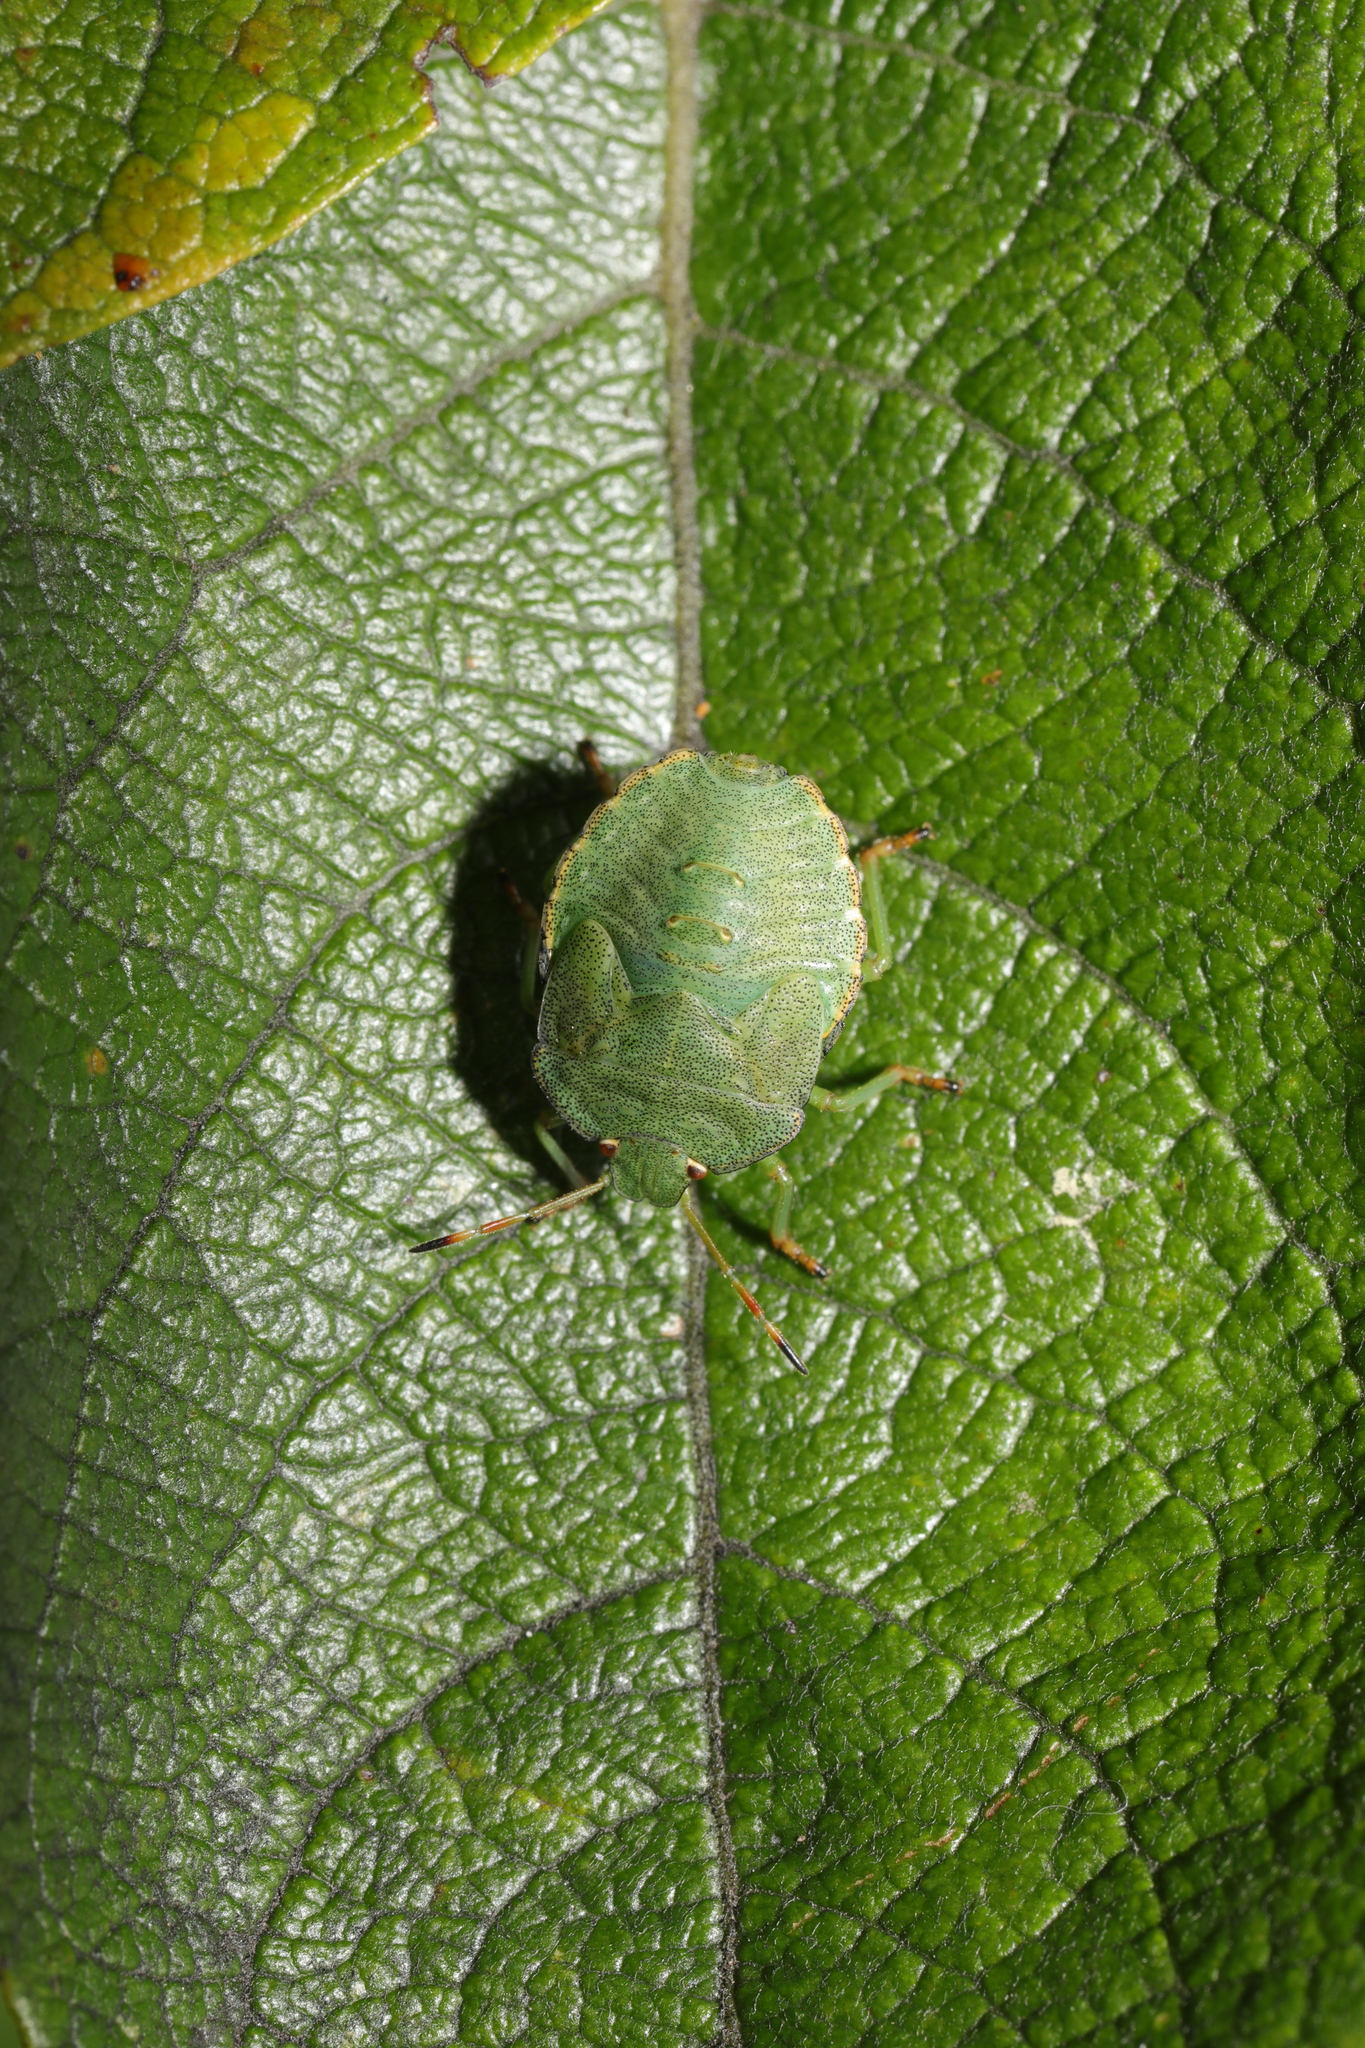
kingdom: Animalia
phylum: Arthropoda
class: Insecta
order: Hemiptera
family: Pentatomidae
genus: Palomena
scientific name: Palomena prasina
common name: Green shieldbug
